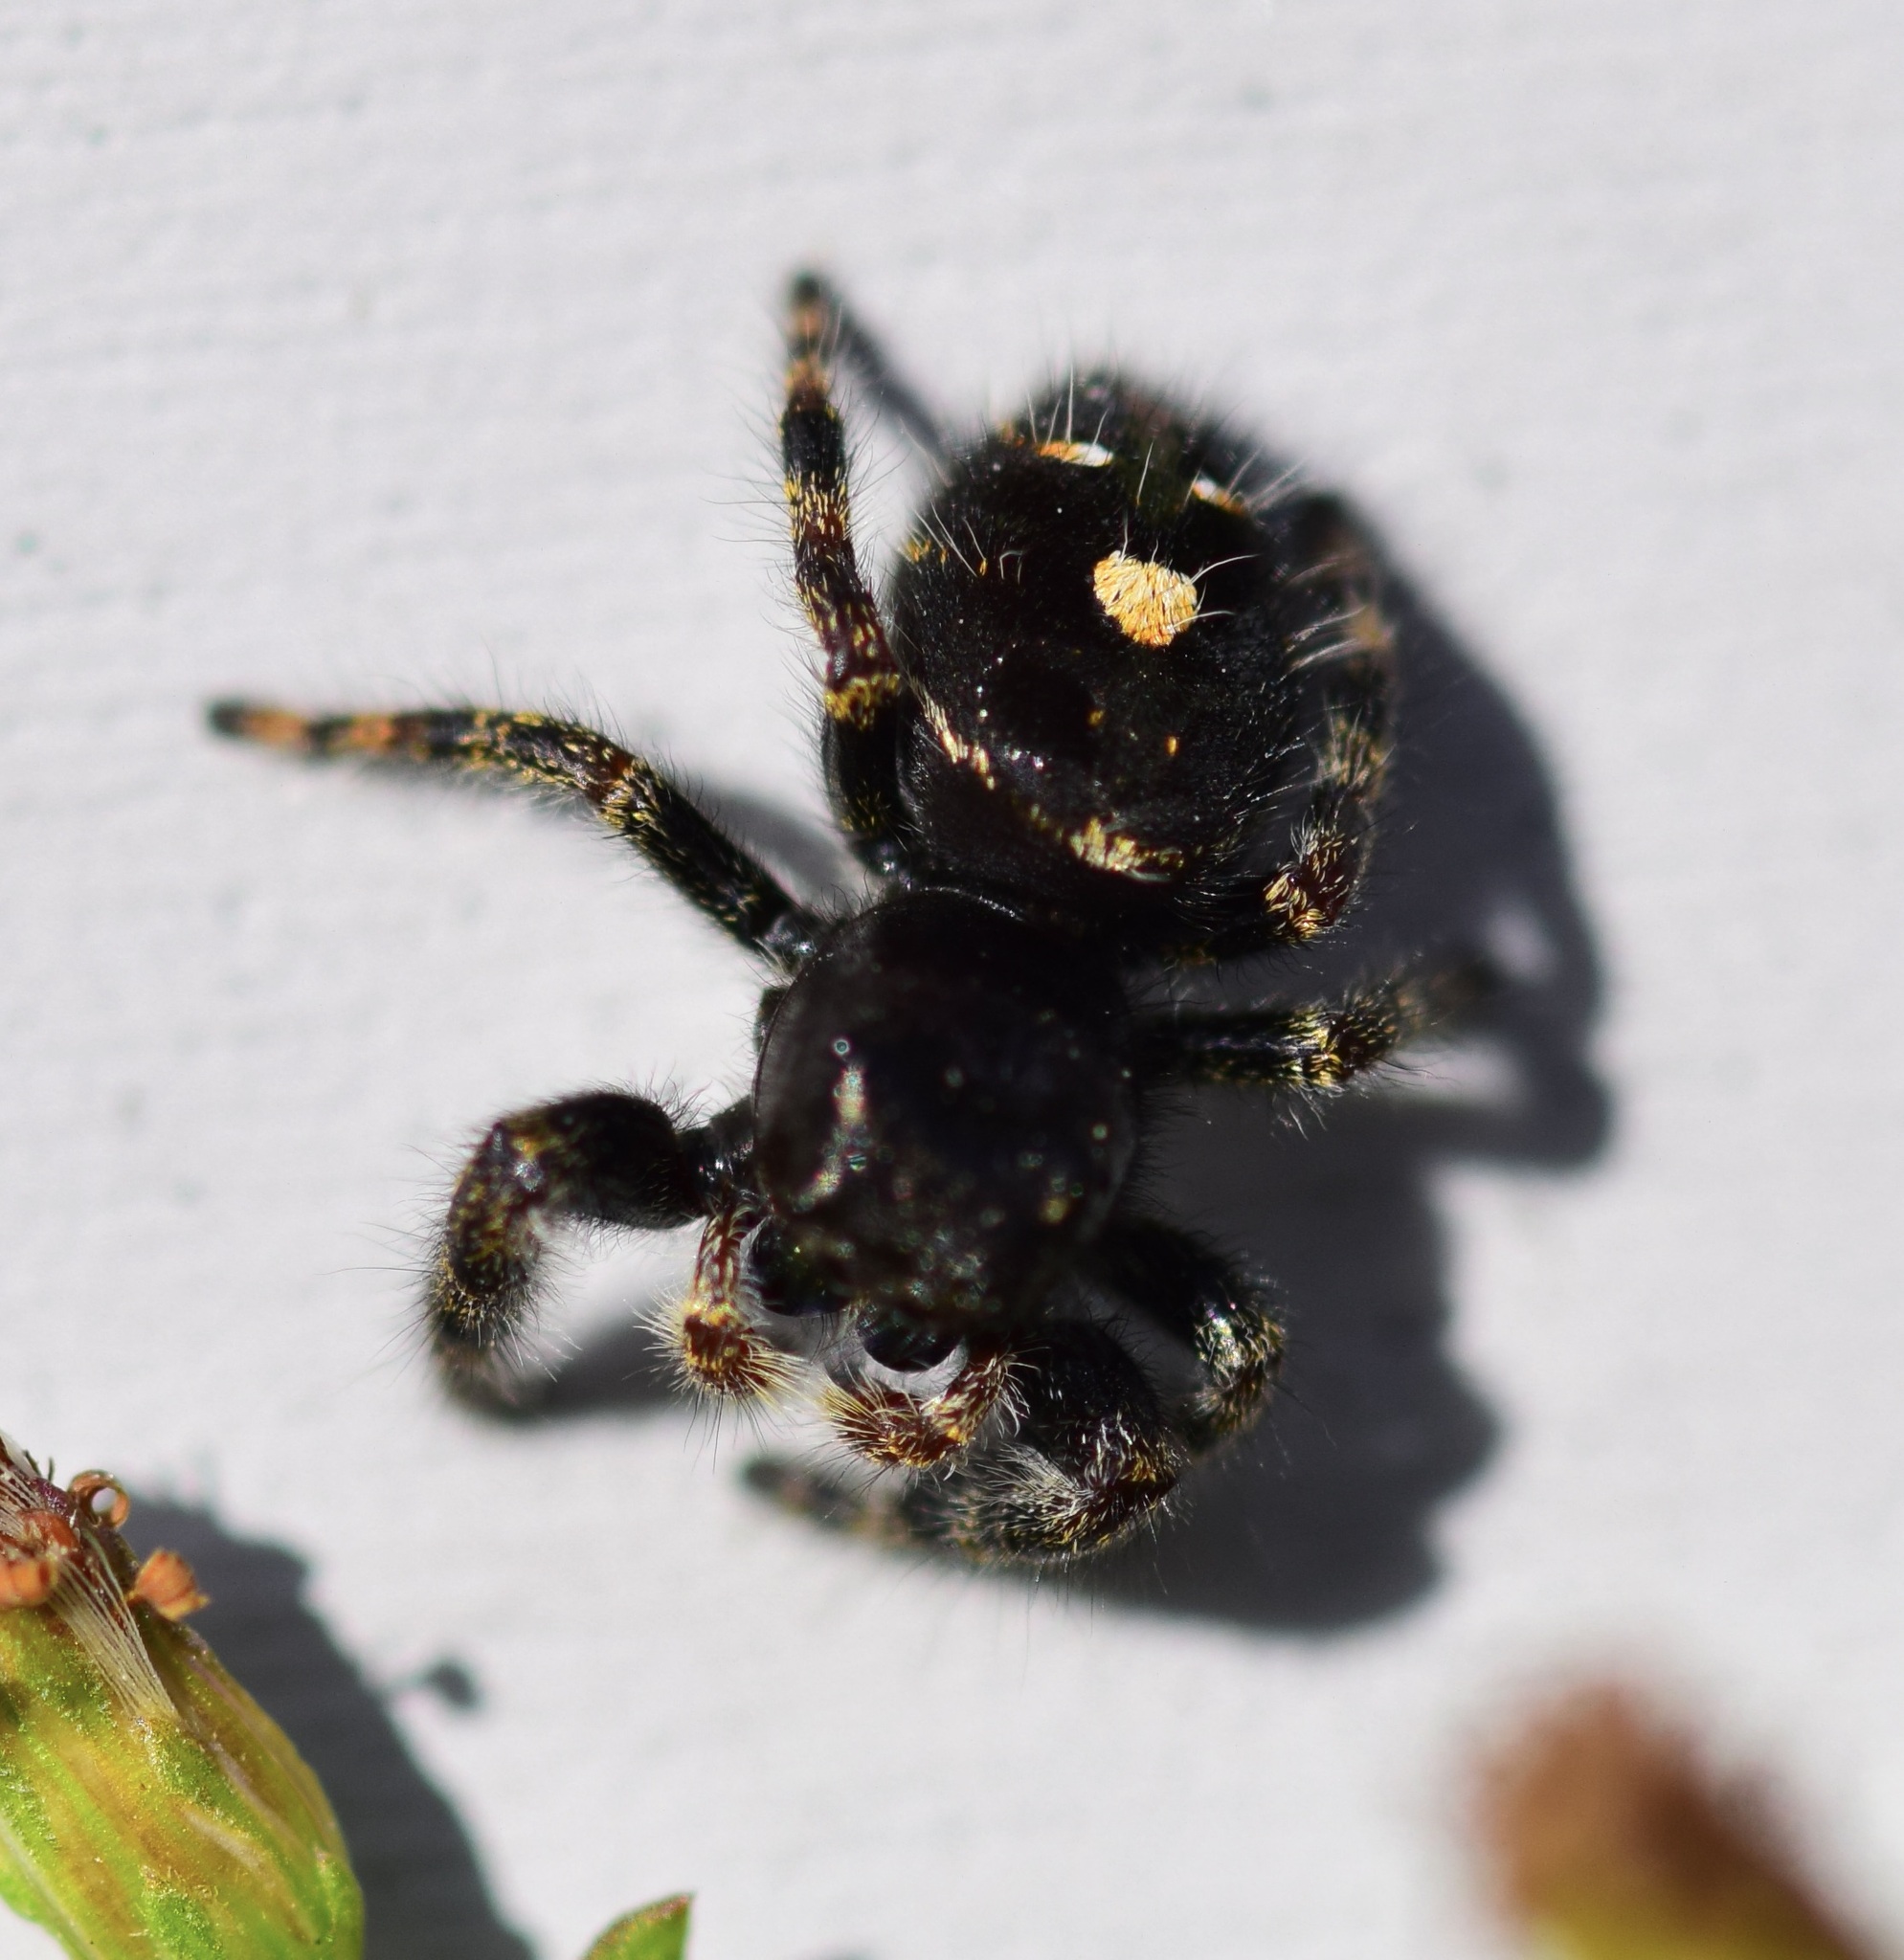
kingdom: Animalia
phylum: Arthropoda
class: Arachnida
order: Araneae
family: Salticidae
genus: Phidippus
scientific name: Phidippus audax
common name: Bold jumper
